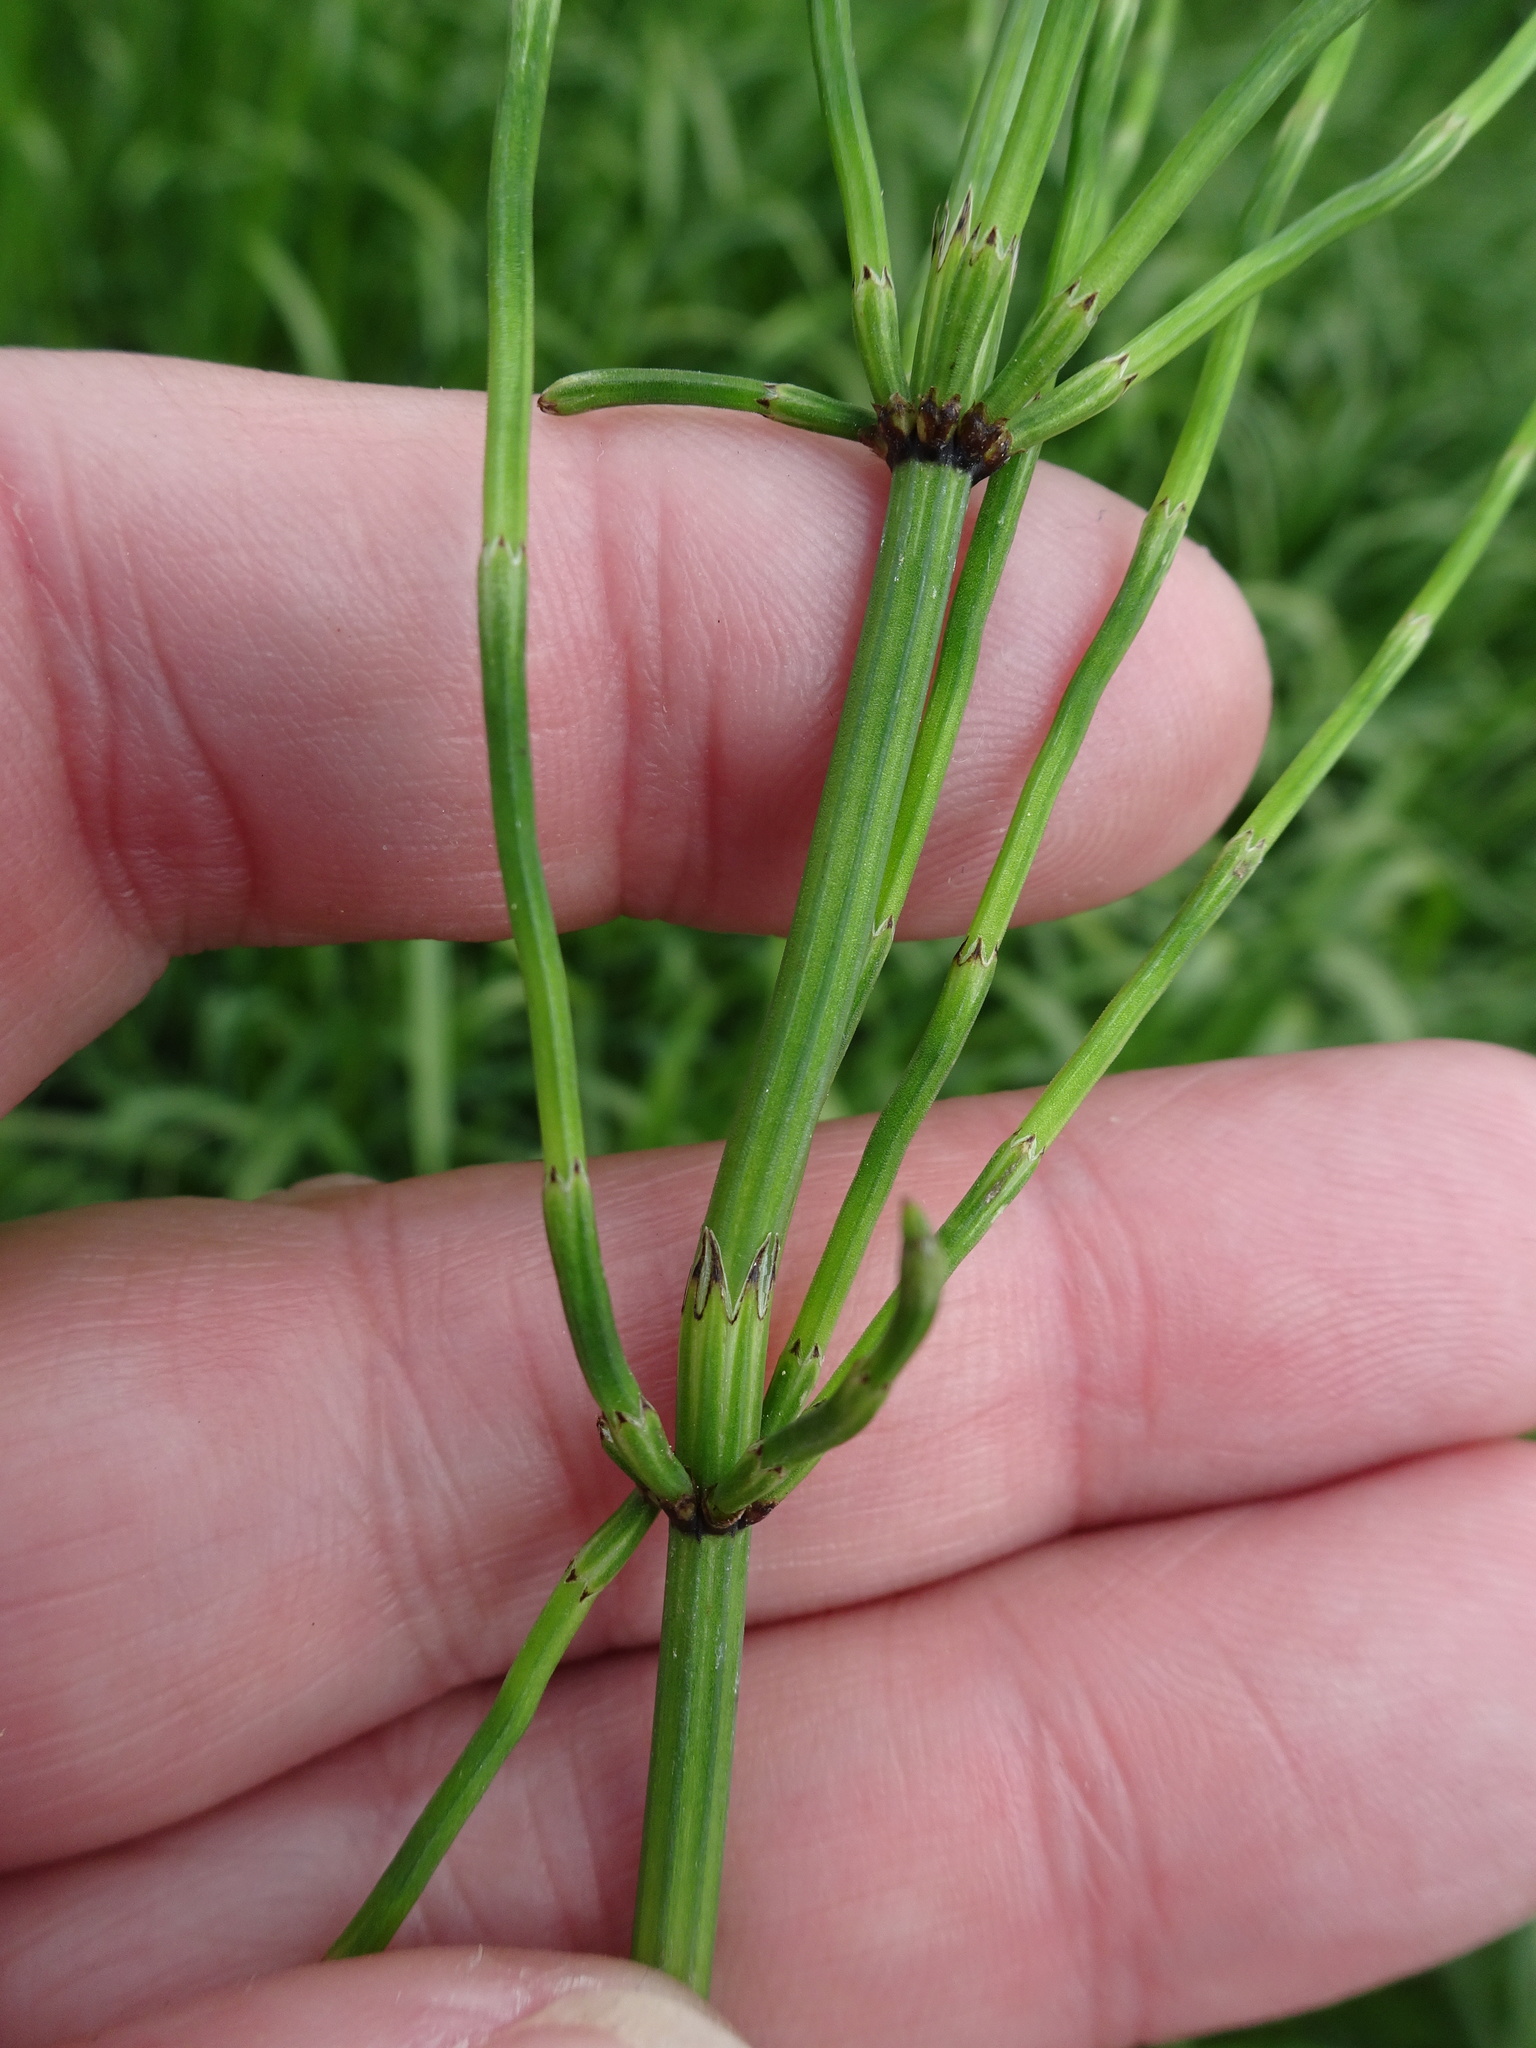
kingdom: Plantae
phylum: Tracheophyta
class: Polypodiopsida
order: Equisetales
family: Equisetaceae
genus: Equisetum
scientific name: Equisetum palustre
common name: Marsh horsetail
